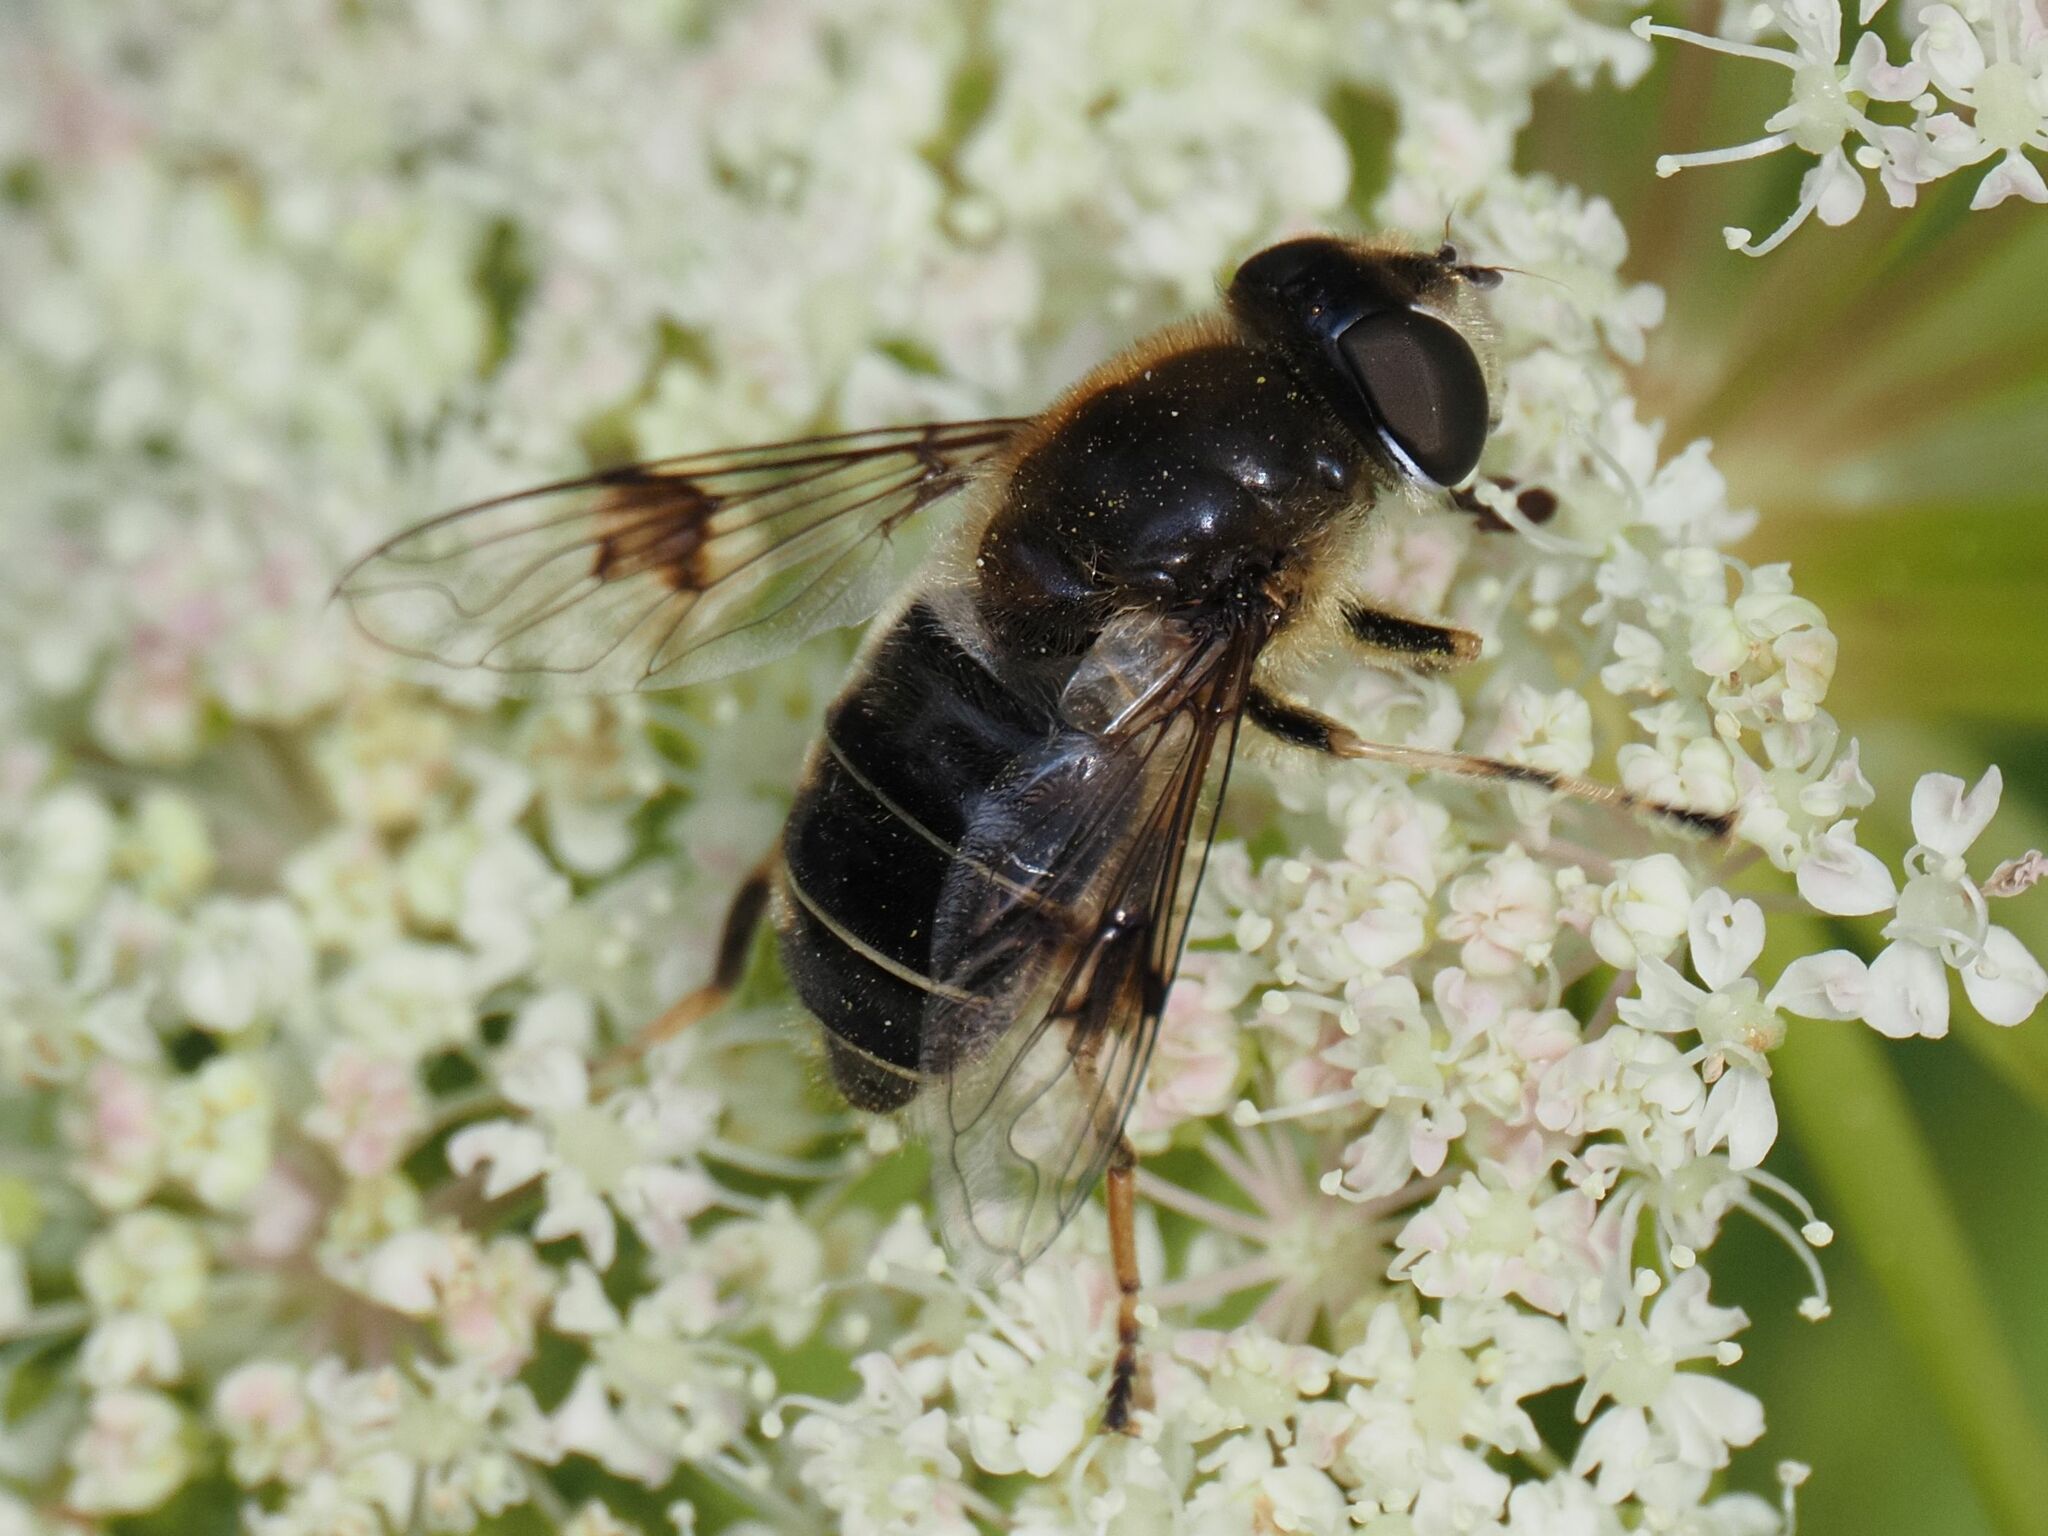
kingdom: Animalia
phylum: Arthropoda
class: Insecta
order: Diptera
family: Syrphidae
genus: Eristalis
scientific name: Eristalis rupium
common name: Hover fly
